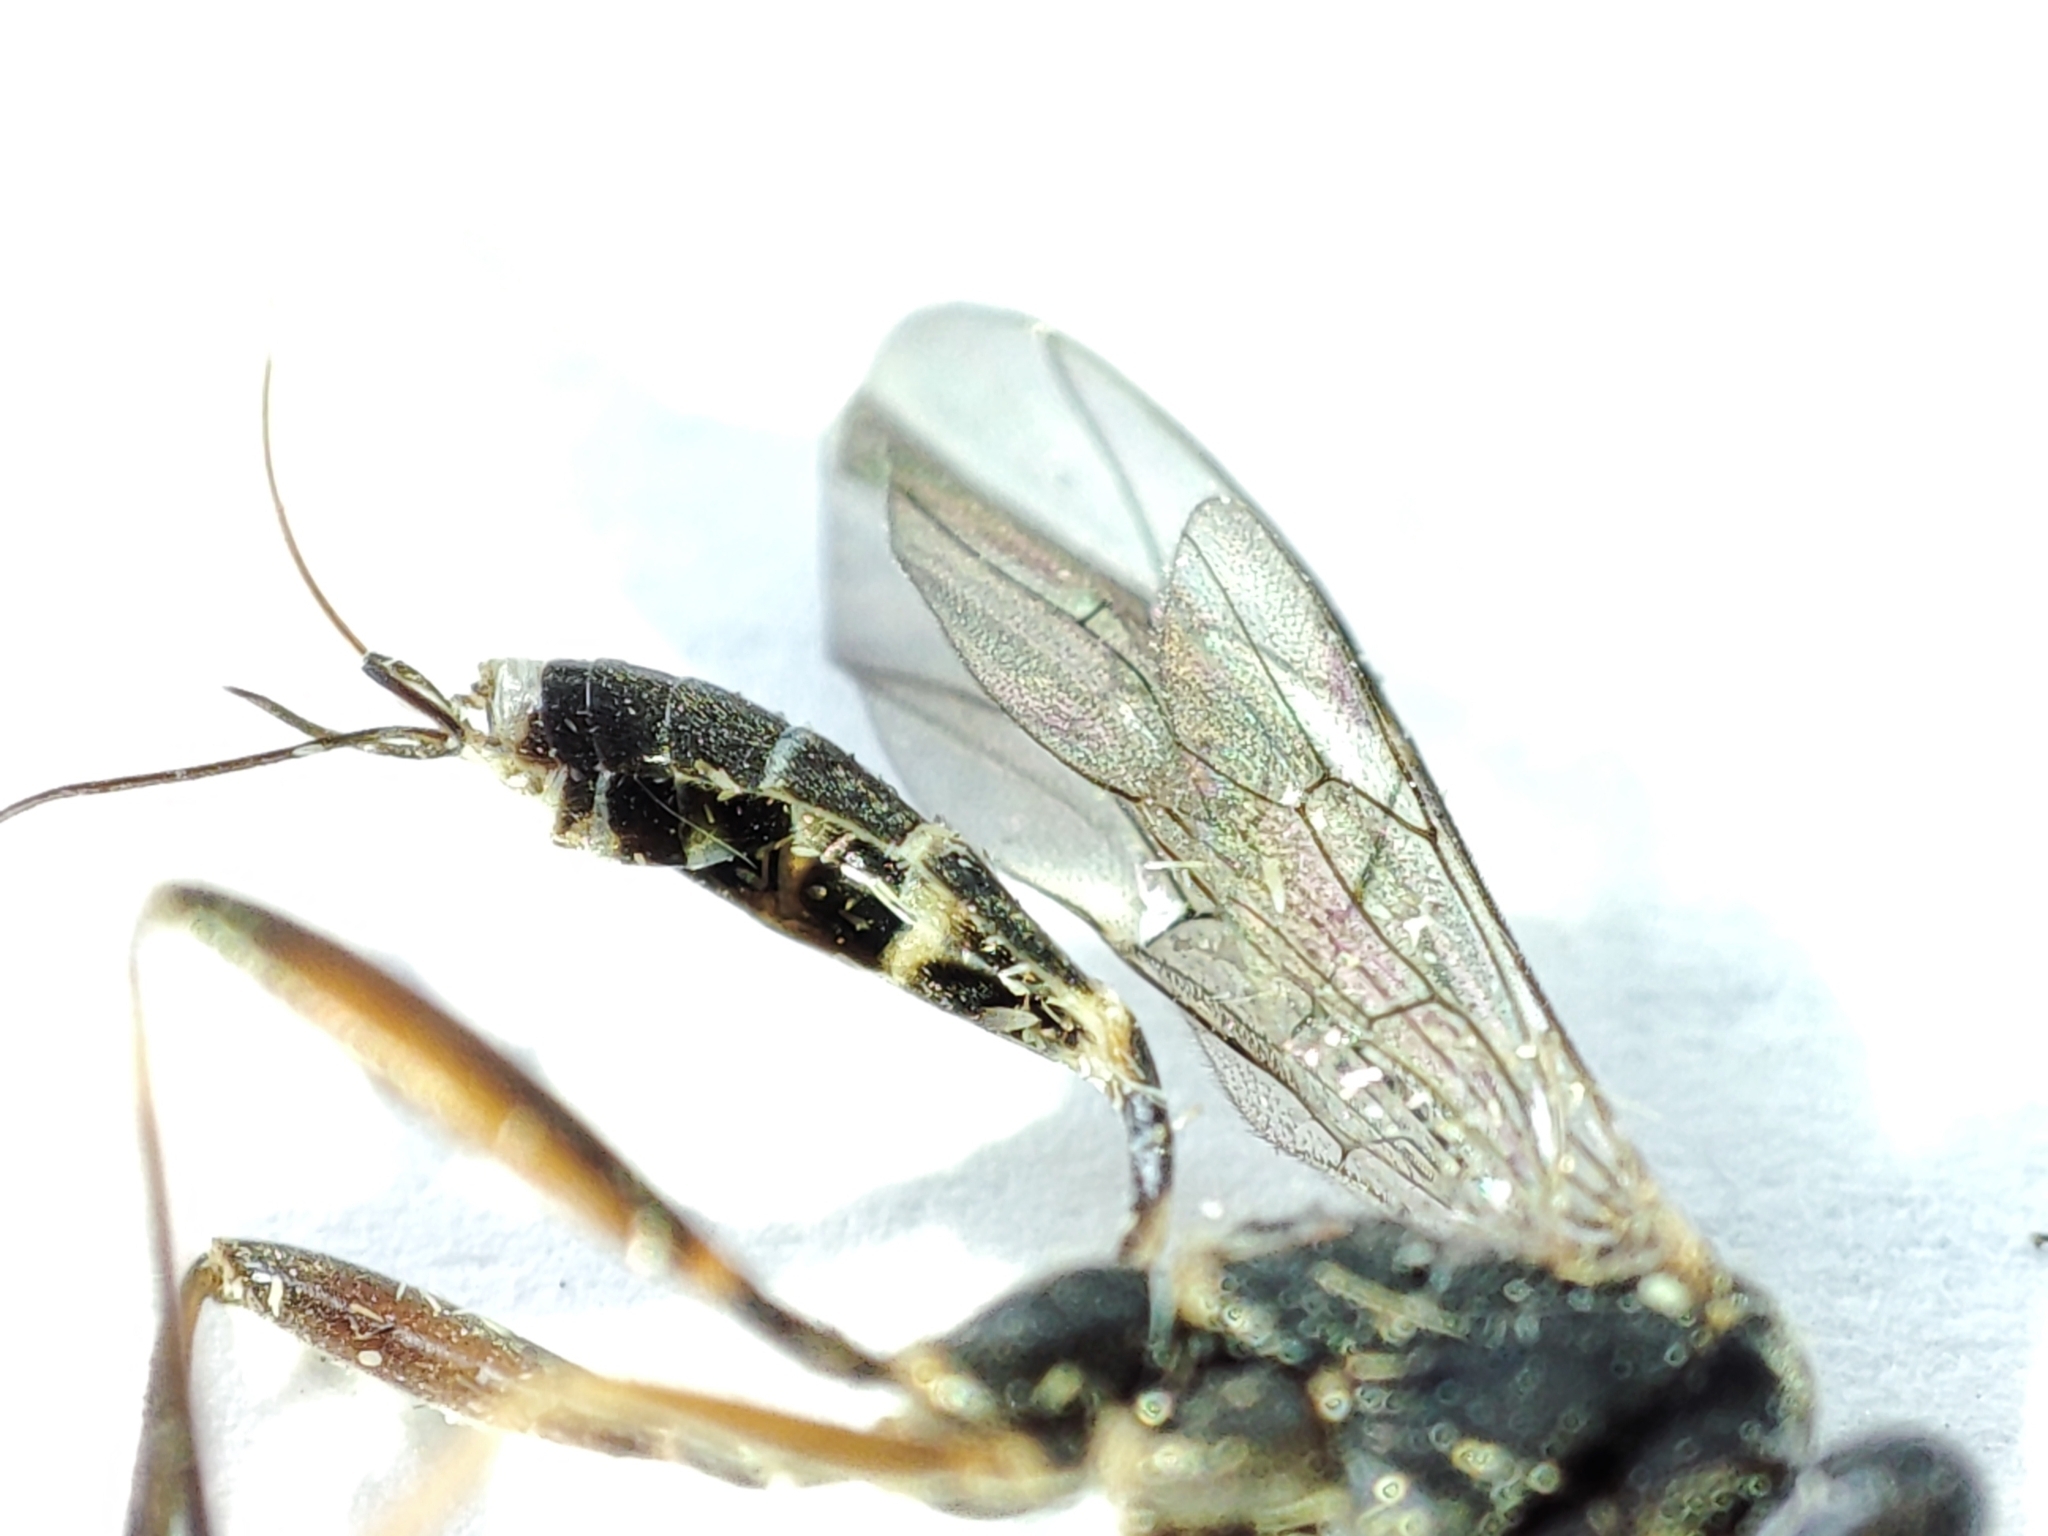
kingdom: Animalia
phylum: Arthropoda
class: Insecta
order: Hymenoptera
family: Ichneumonidae
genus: Picardiella
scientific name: Picardiella melanoleuca
